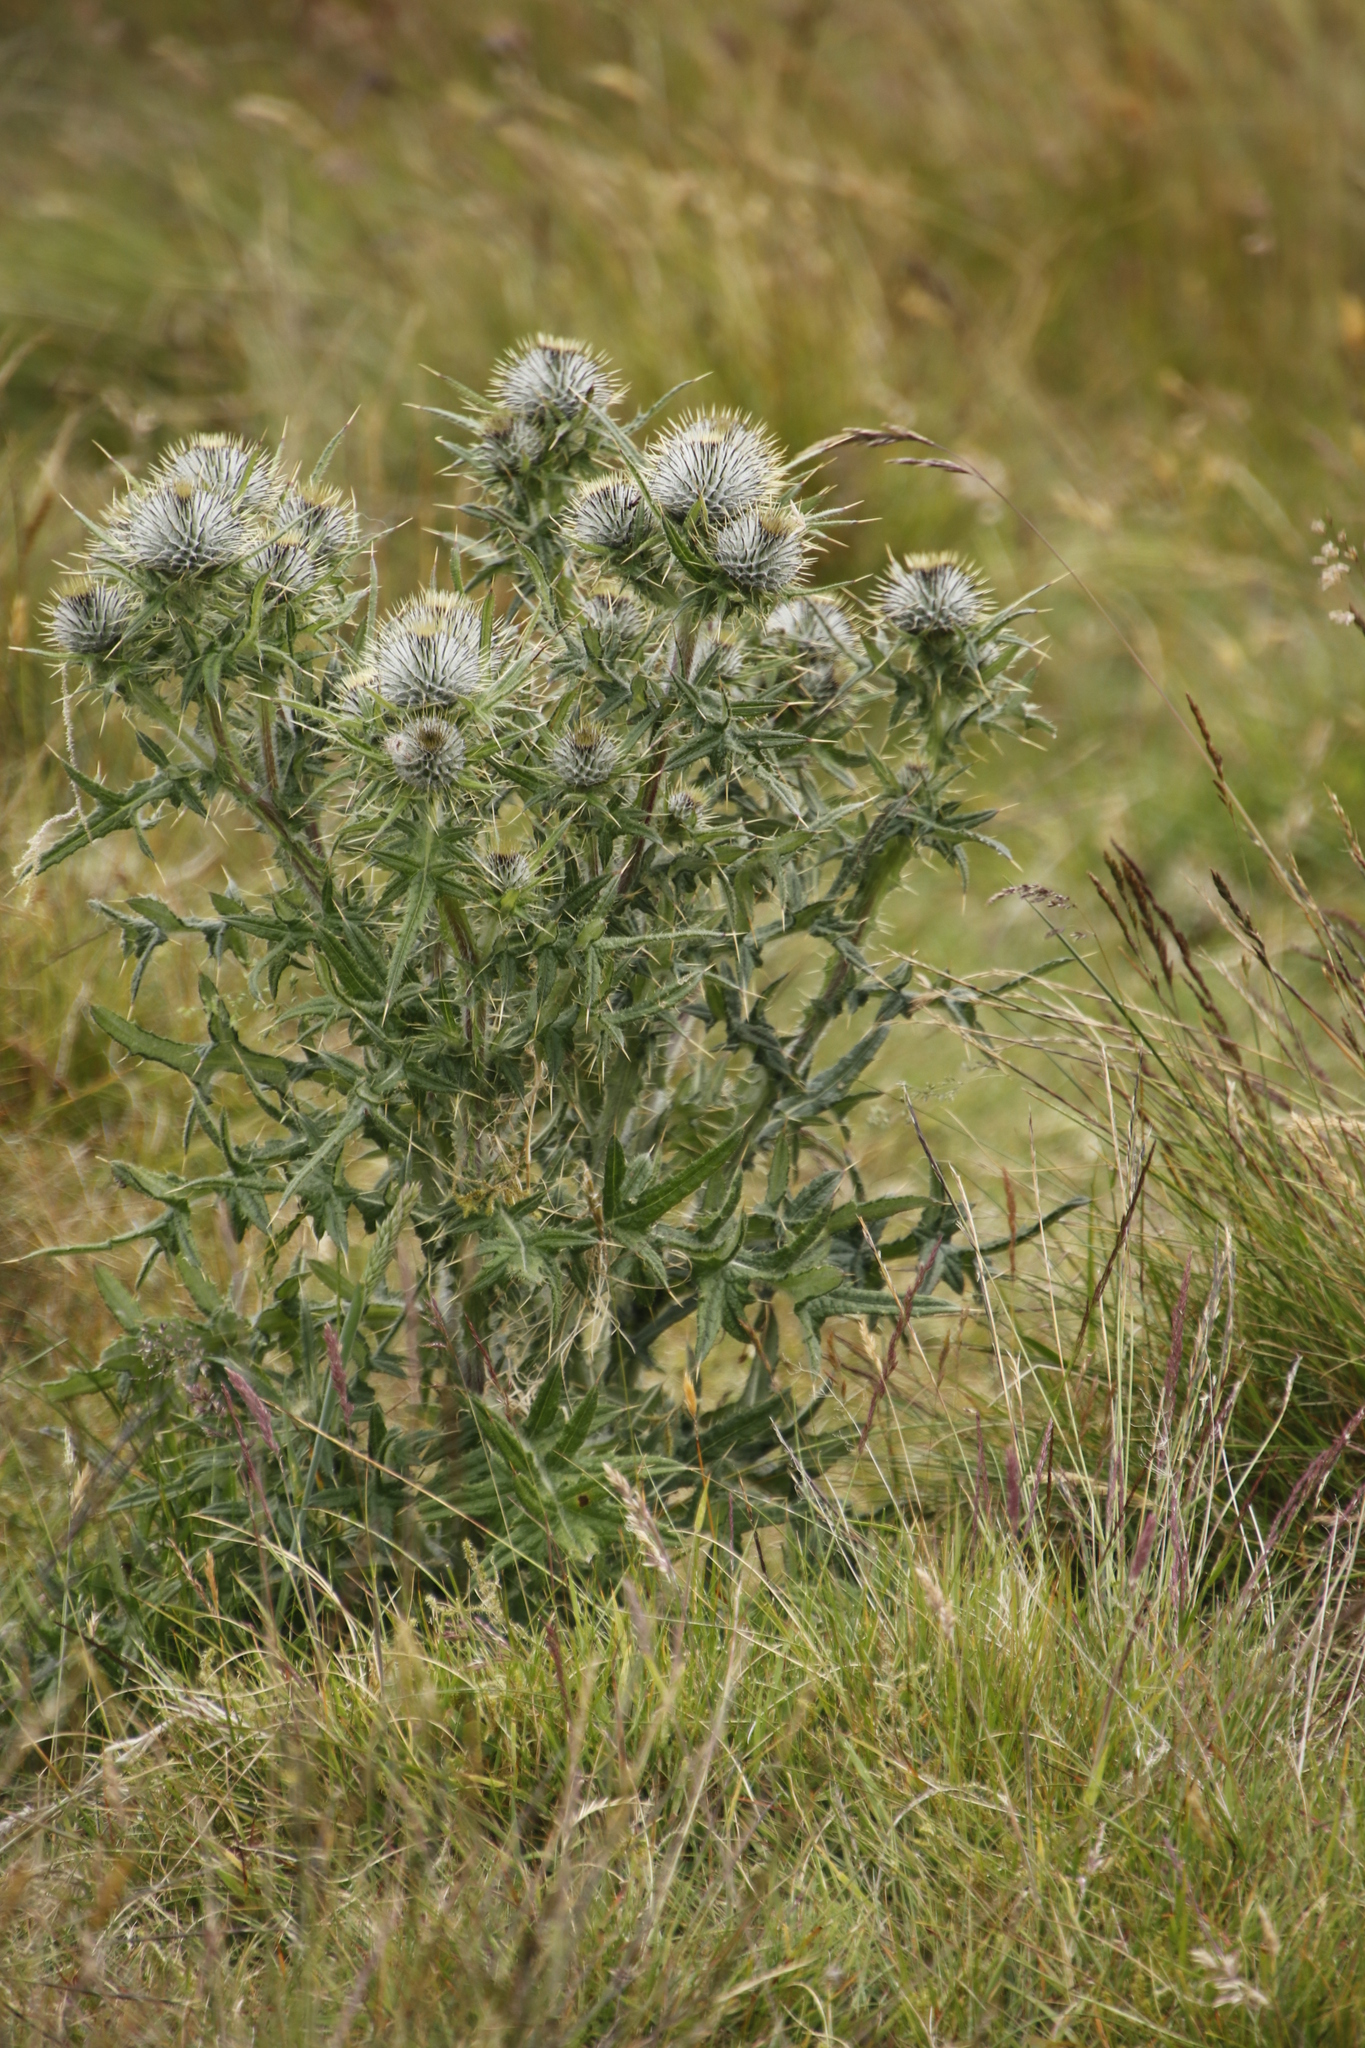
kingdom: Plantae
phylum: Tracheophyta
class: Magnoliopsida
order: Asterales
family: Asteraceae
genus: Cirsium
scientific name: Cirsium vulgare
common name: Bull thistle
